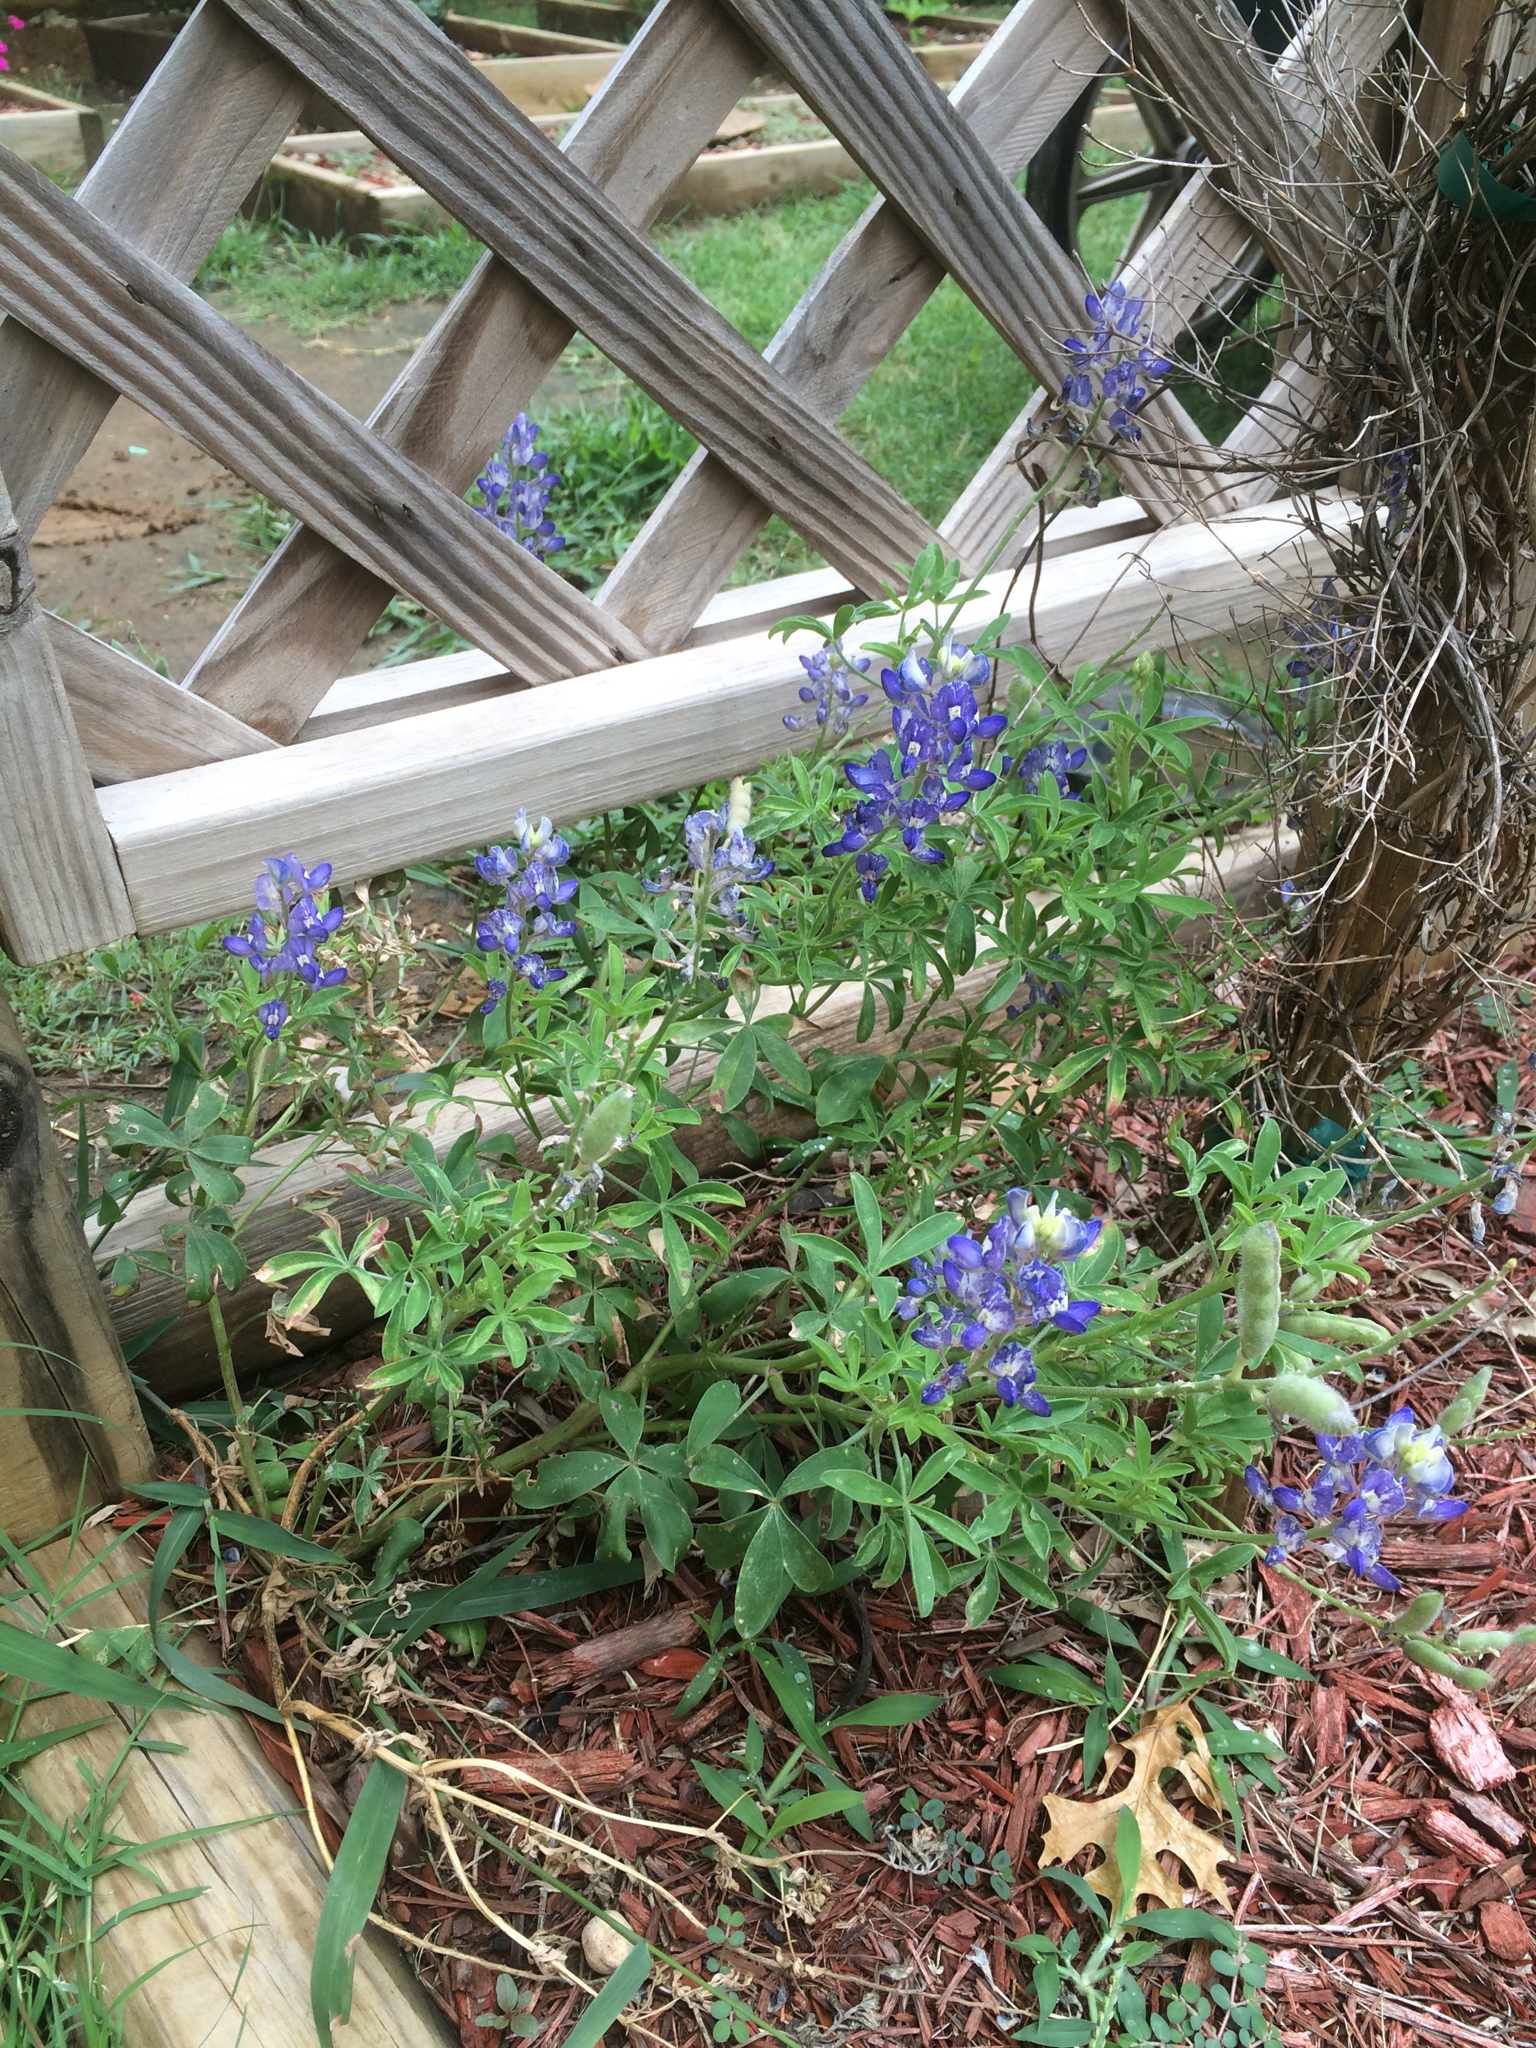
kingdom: Plantae
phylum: Tracheophyta
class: Magnoliopsida
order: Fabales
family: Fabaceae
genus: Lupinus
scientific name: Lupinus texensis
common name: Texas bluebonnet
